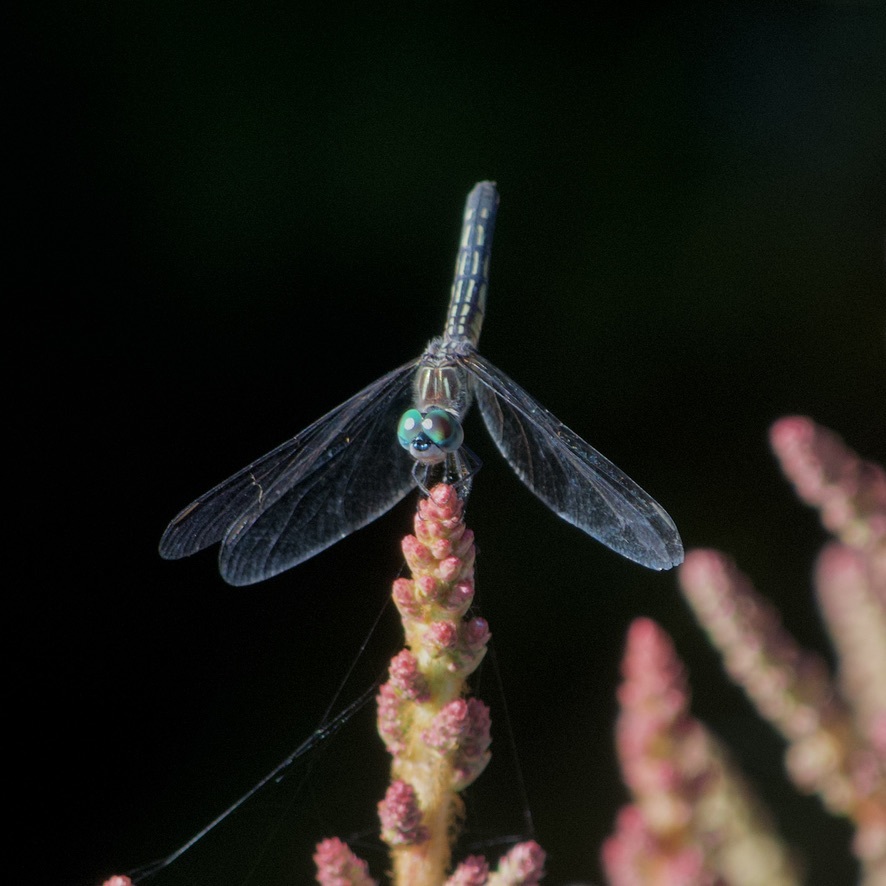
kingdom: Animalia
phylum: Arthropoda
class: Insecta
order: Odonata
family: Libellulidae
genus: Pachydiplax
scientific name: Pachydiplax longipennis
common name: Blue dasher
